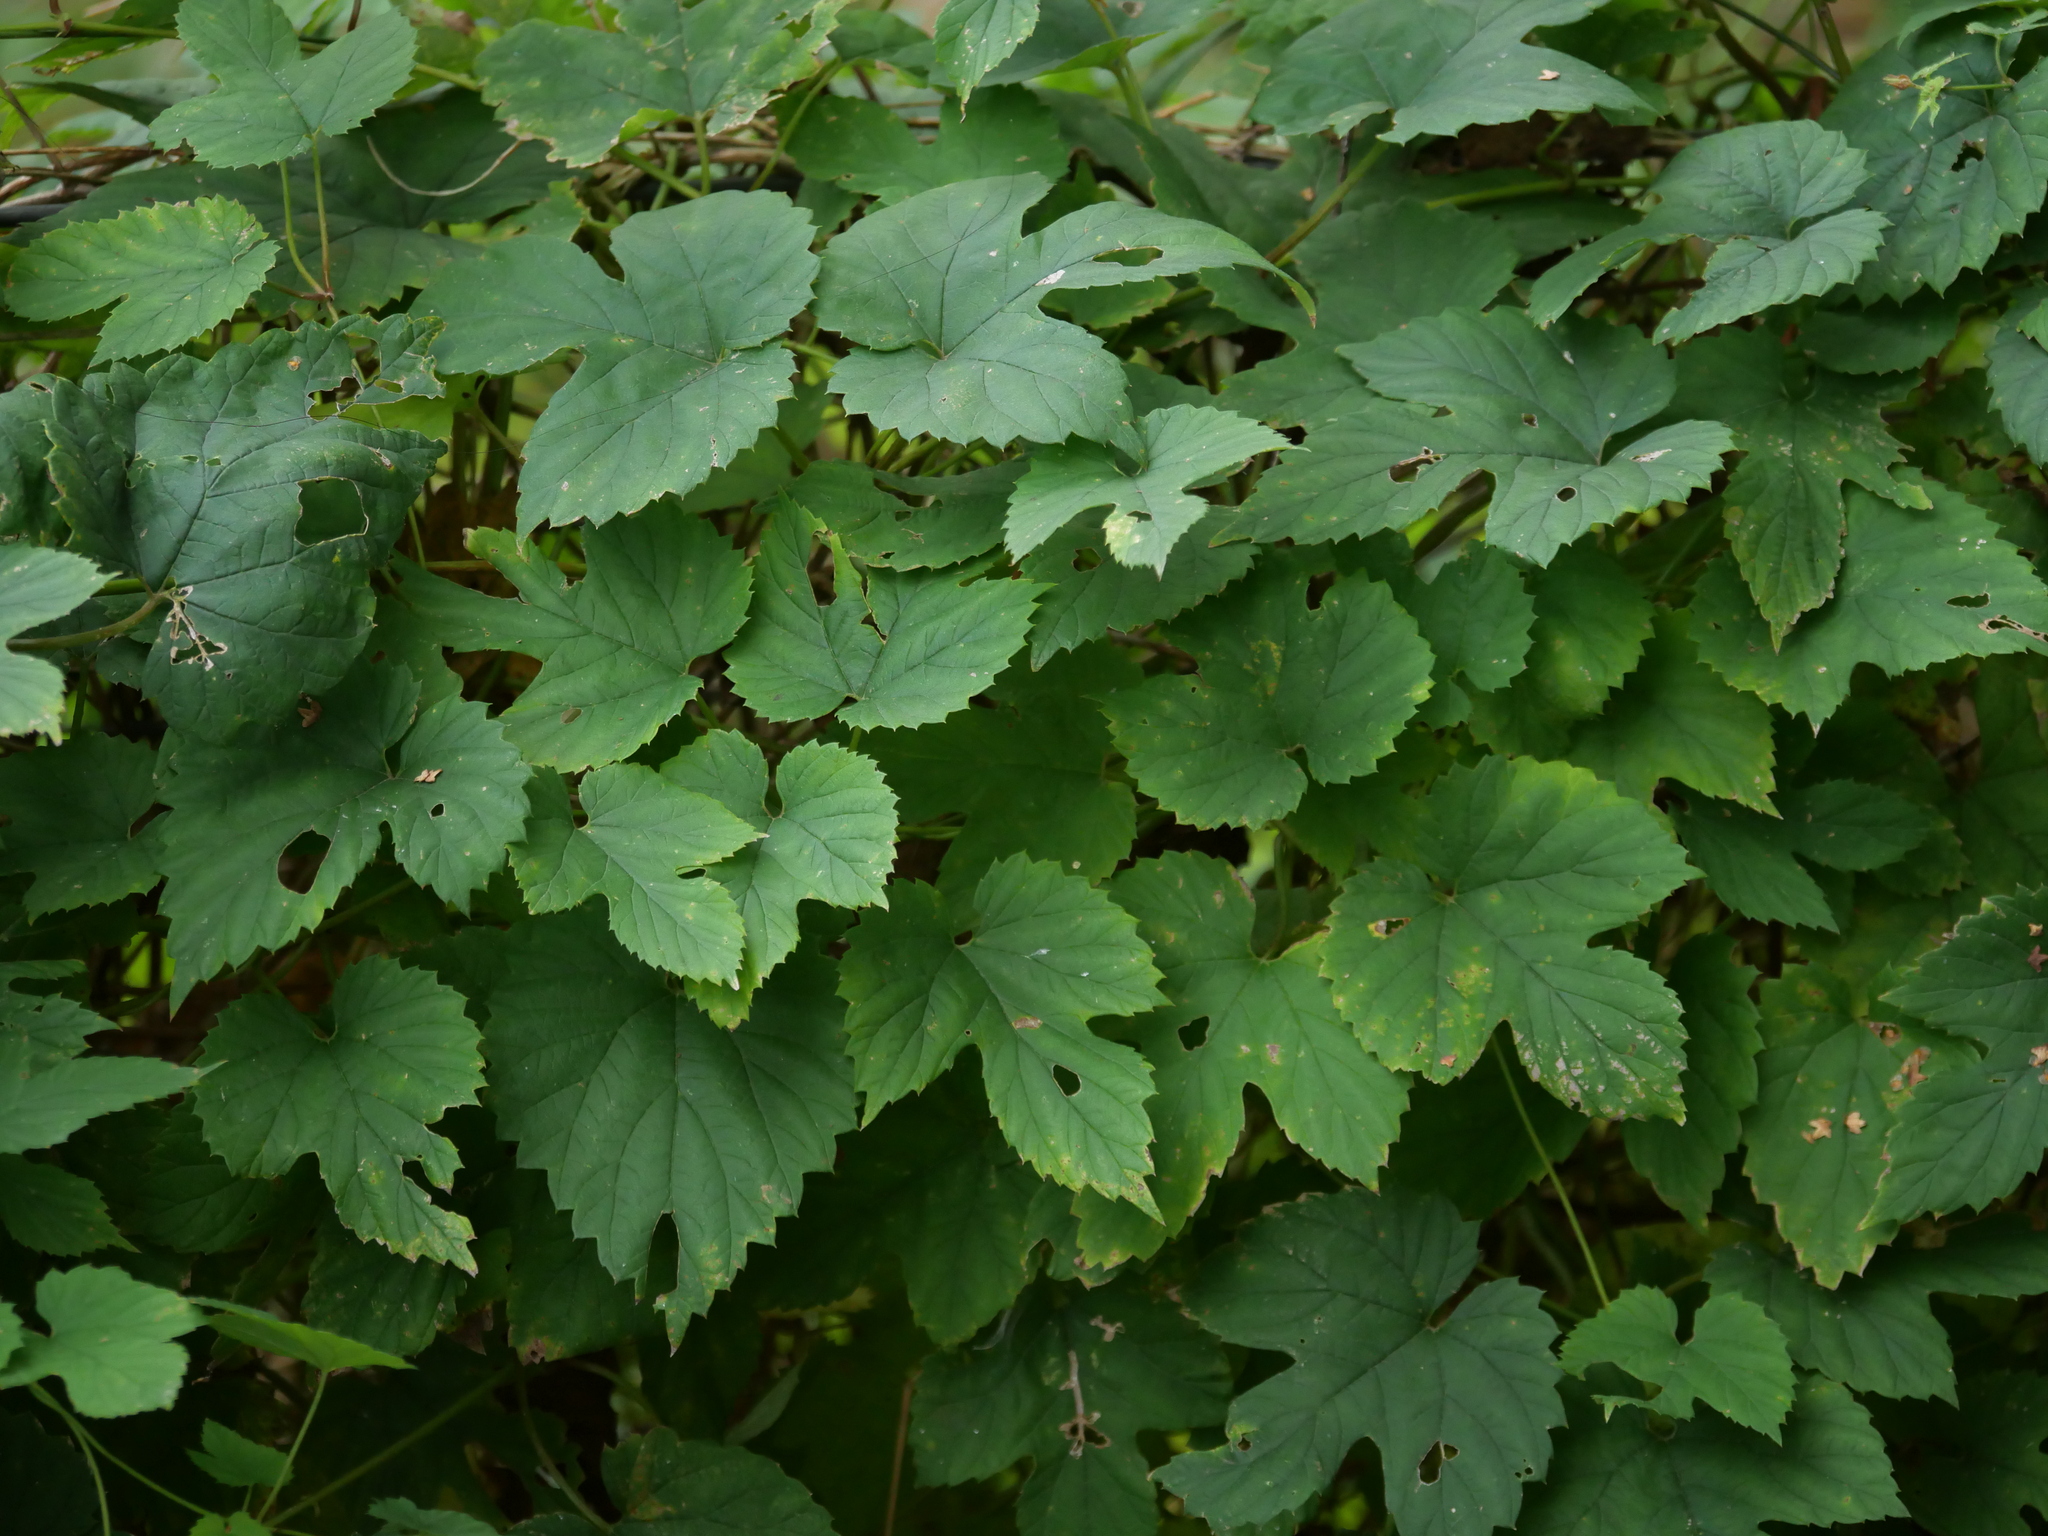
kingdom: Plantae
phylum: Tracheophyta
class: Magnoliopsida
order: Rosales
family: Cannabaceae
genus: Humulus
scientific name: Humulus lupulus
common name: Hop
